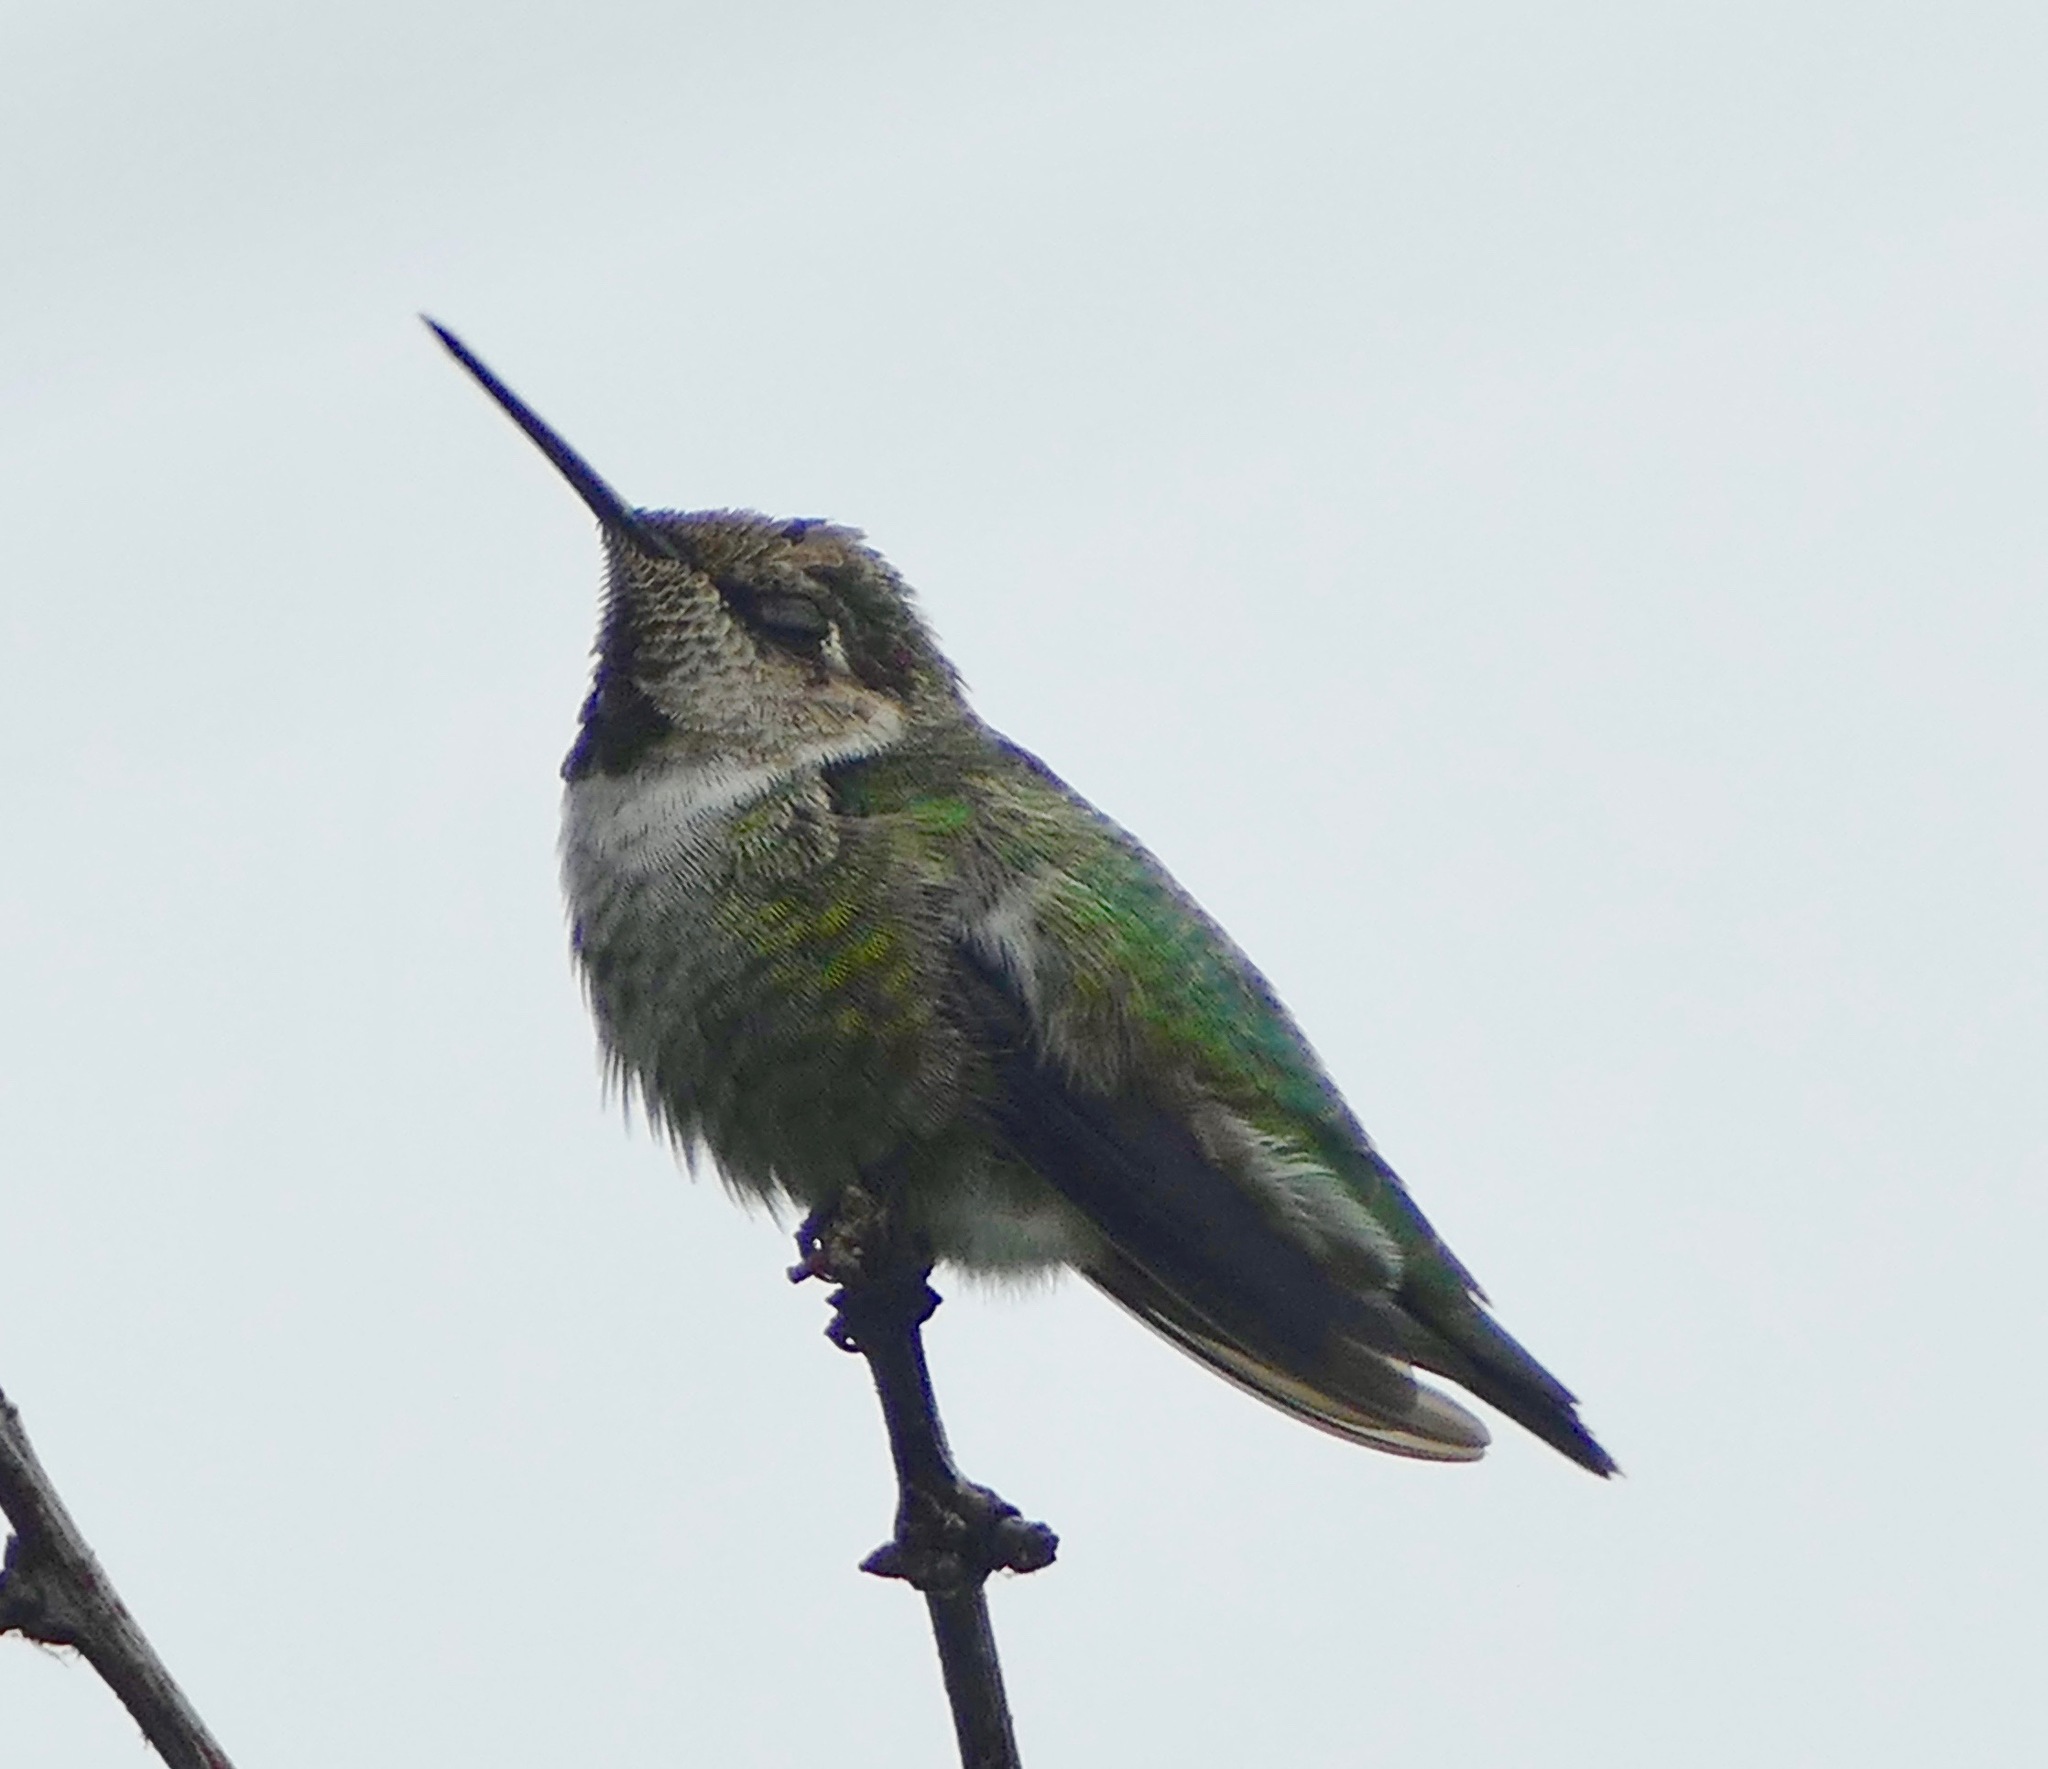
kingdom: Animalia
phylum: Chordata
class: Aves
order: Apodiformes
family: Trochilidae
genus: Calypte
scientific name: Calypte anna
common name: Anna's hummingbird
